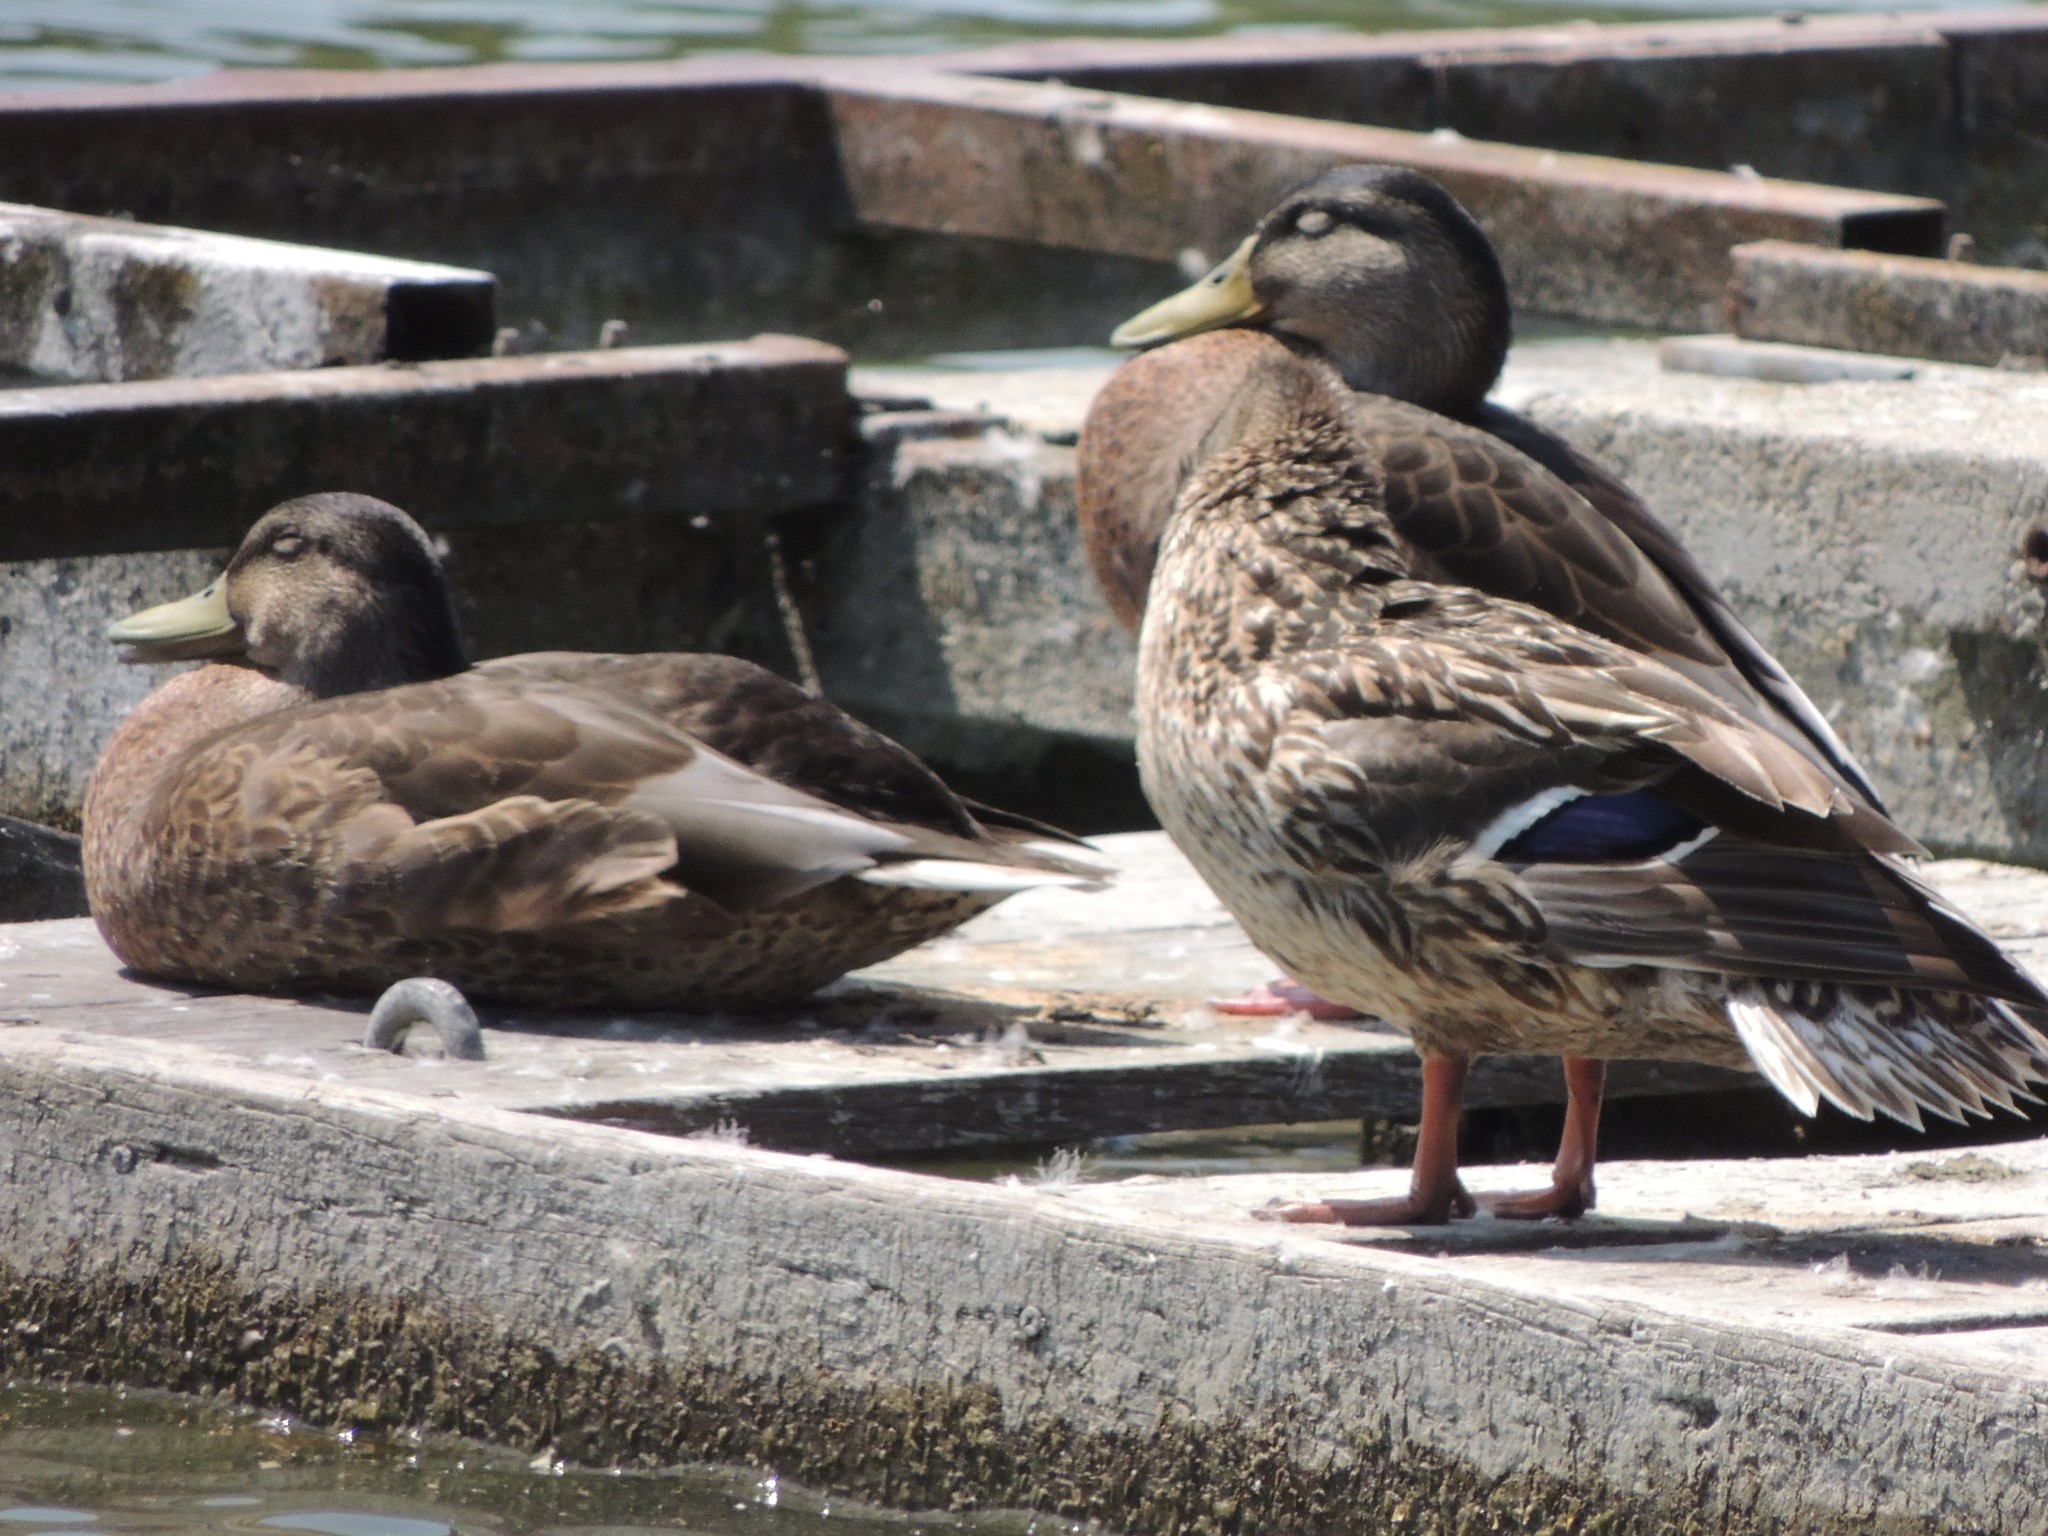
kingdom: Animalia
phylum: Chordata
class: Aves
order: Anseriformes
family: Anatidae
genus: Anas
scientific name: Anas platyrhynchos
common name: Mallard
